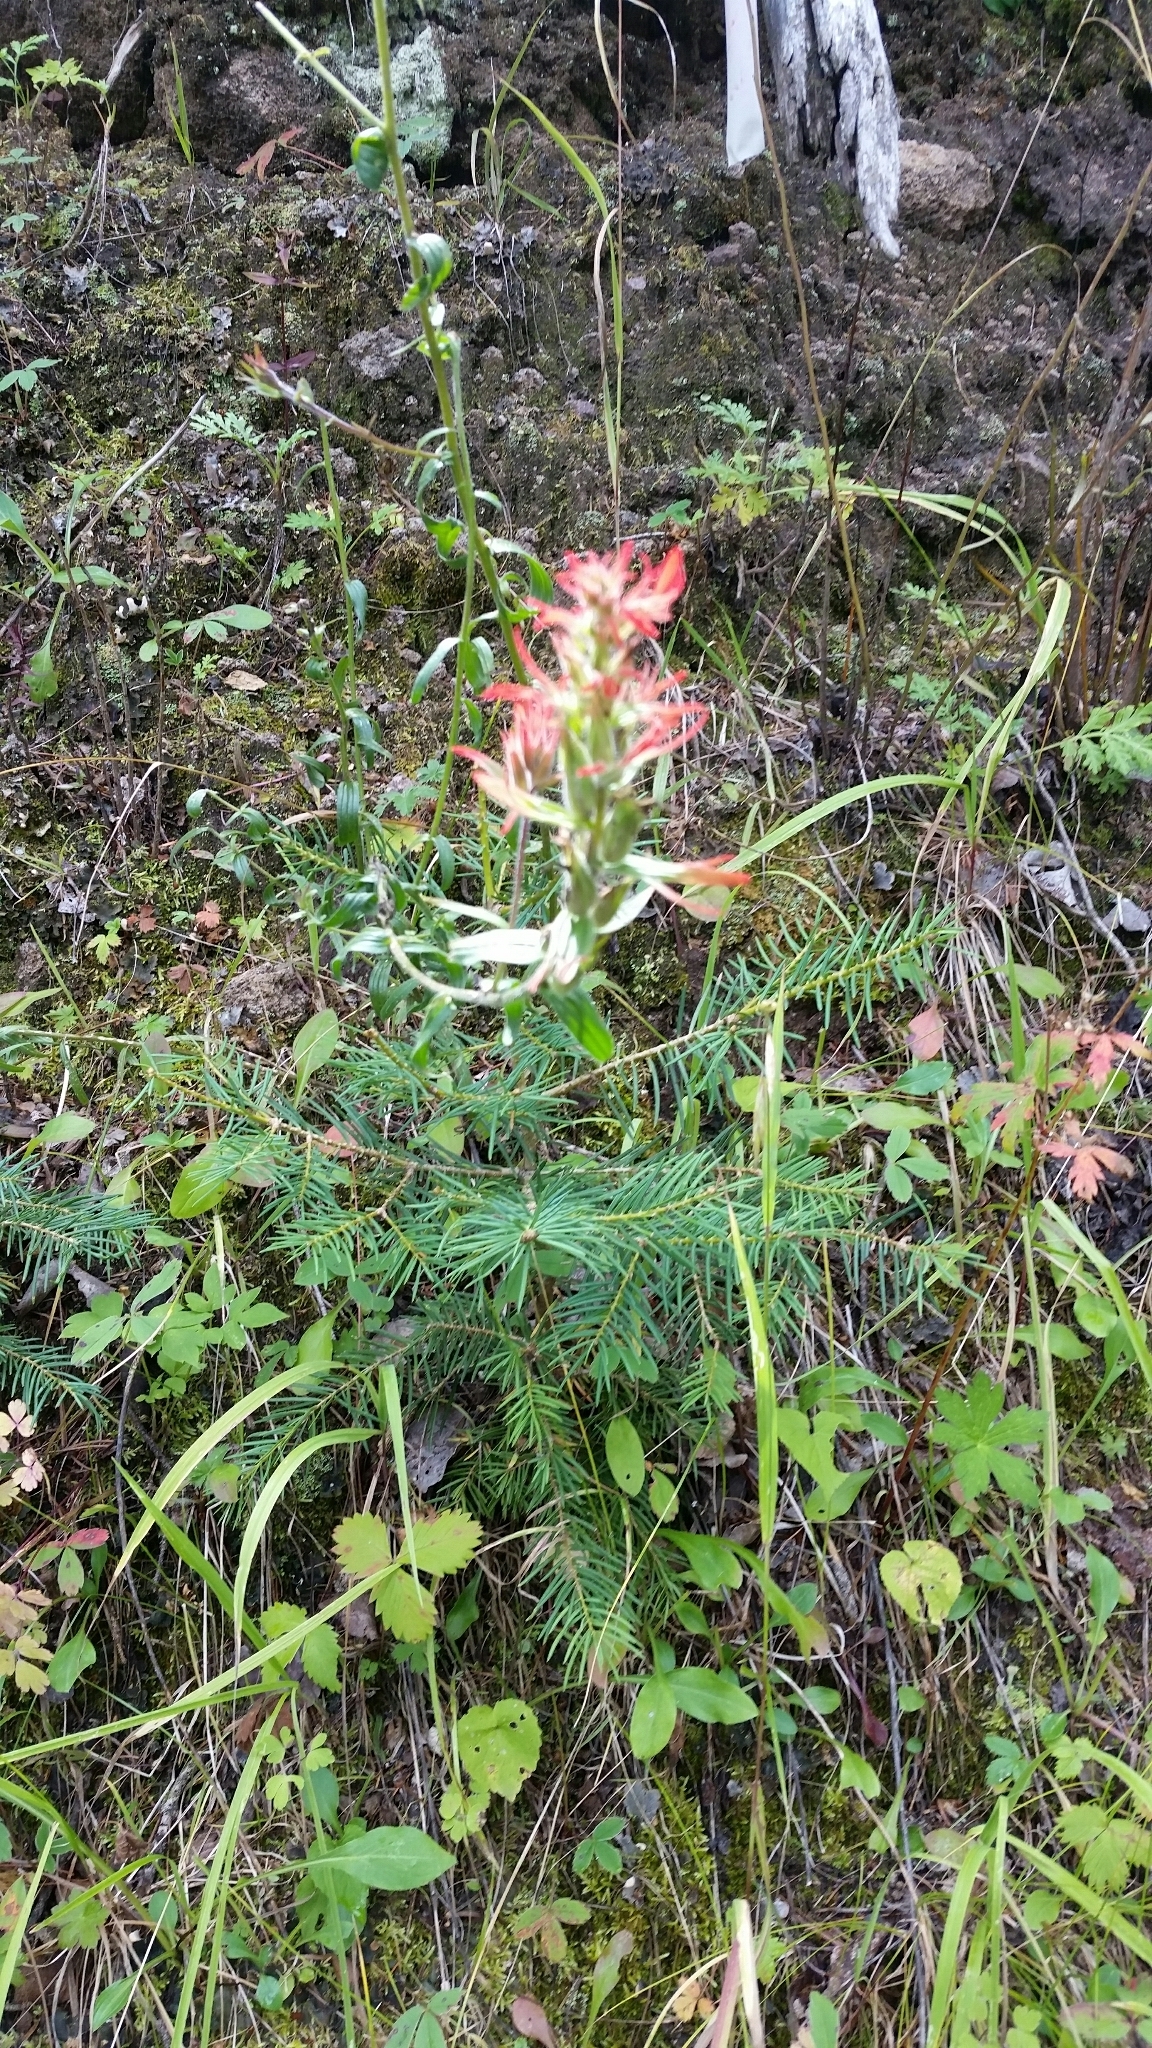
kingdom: Plantae
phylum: Tracheophyta
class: Magnoliopsida
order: Lamiales
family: Orobanchaceae
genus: Castilleja
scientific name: Castilleja miniata
